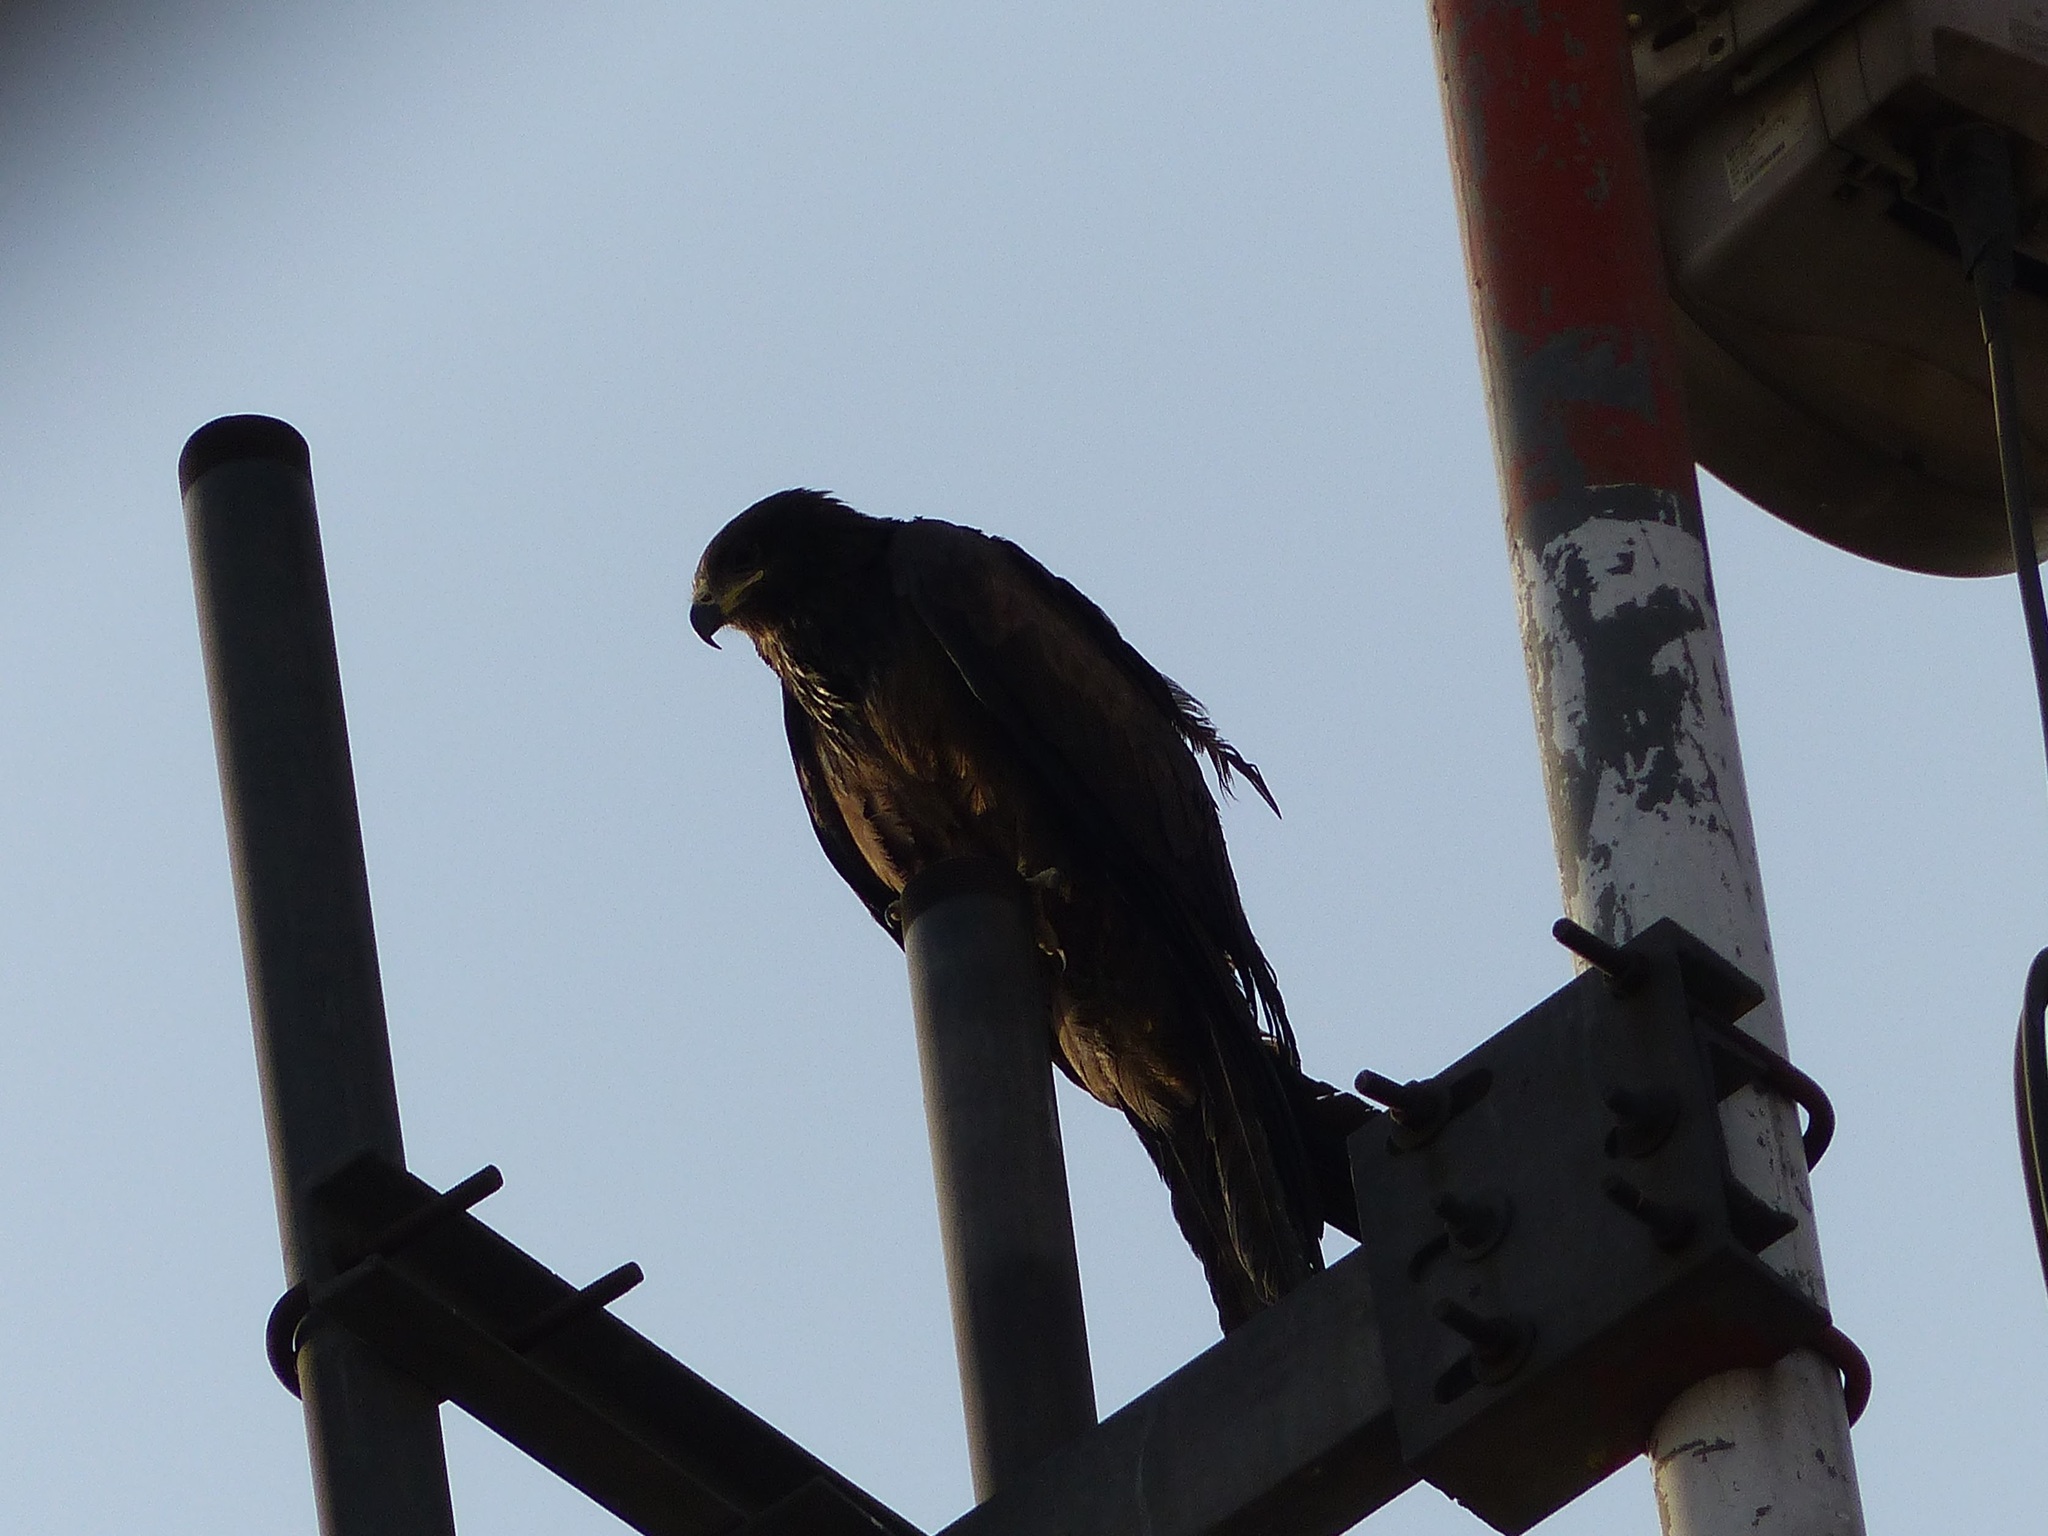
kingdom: Animalia
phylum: Chordata
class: Aves
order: Accipitriformes
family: Accipitridae
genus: Milvus
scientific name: Milvus migrans
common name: Black kite
